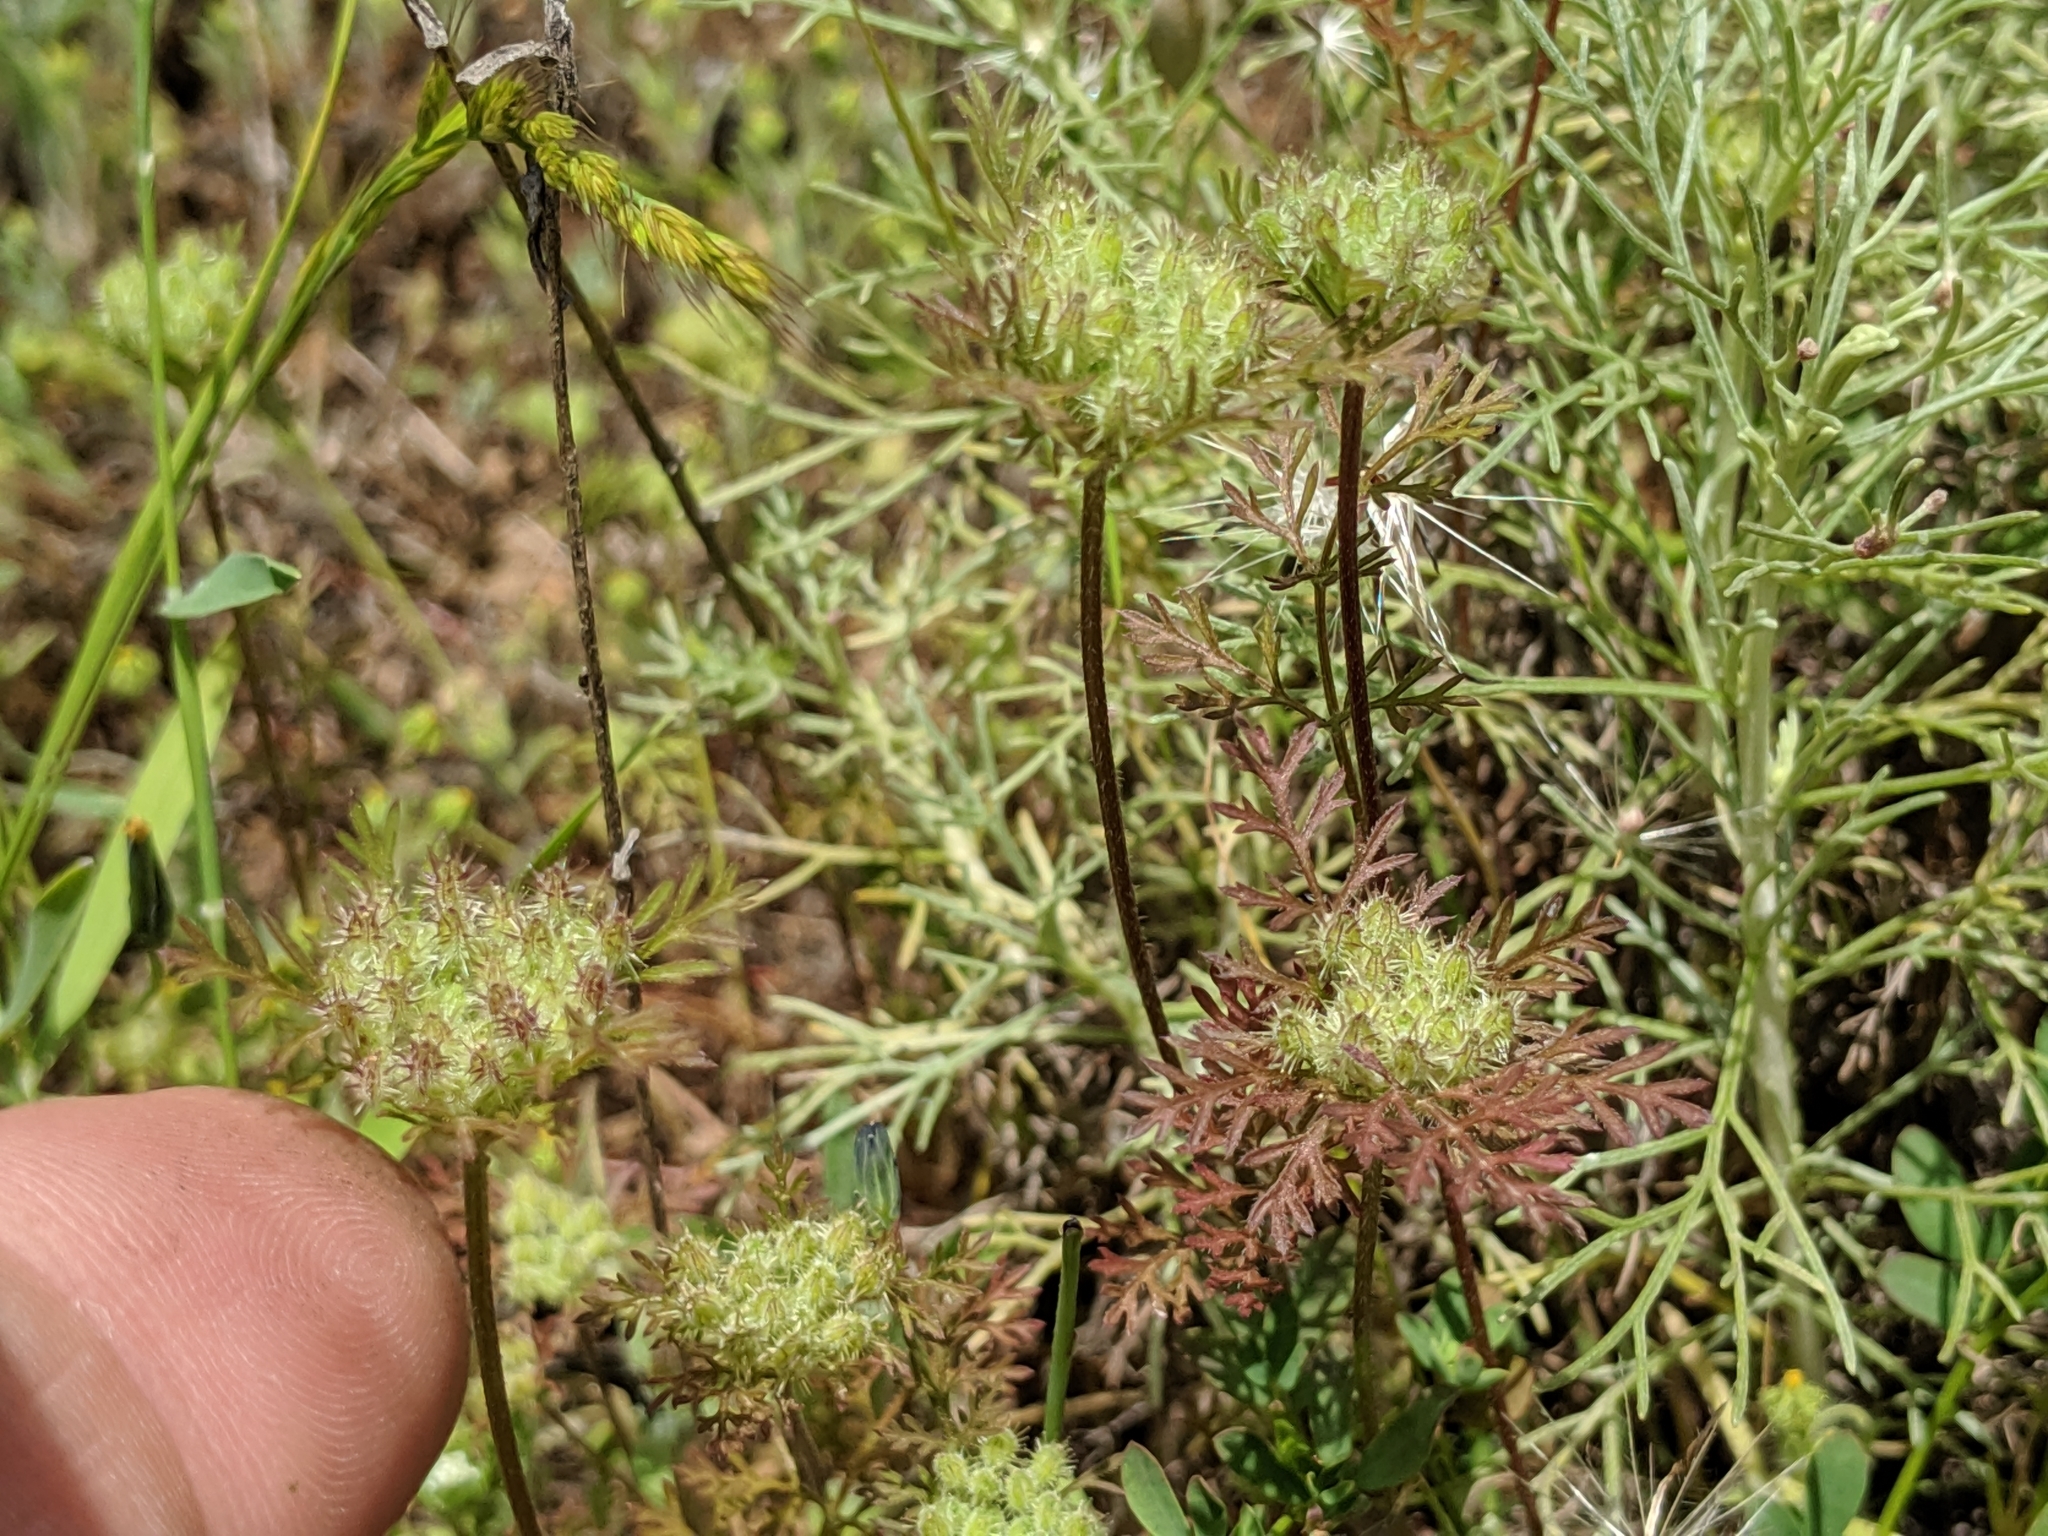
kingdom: Plantae
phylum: Tracheophyta
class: Magnoliopsida
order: Apiales
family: Apiaceae
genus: Daucus
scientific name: Daucus pusillus
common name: Southwest wild carrot
